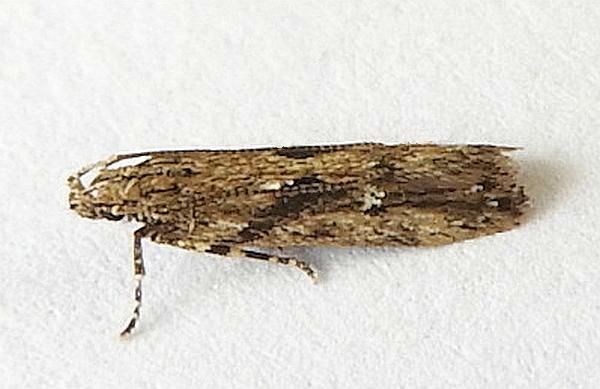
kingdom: Animalia
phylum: Arthropoda
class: Insecta
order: Lepidoptera
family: Gelechiidae
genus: Chionodes
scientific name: Chionodes rabula
